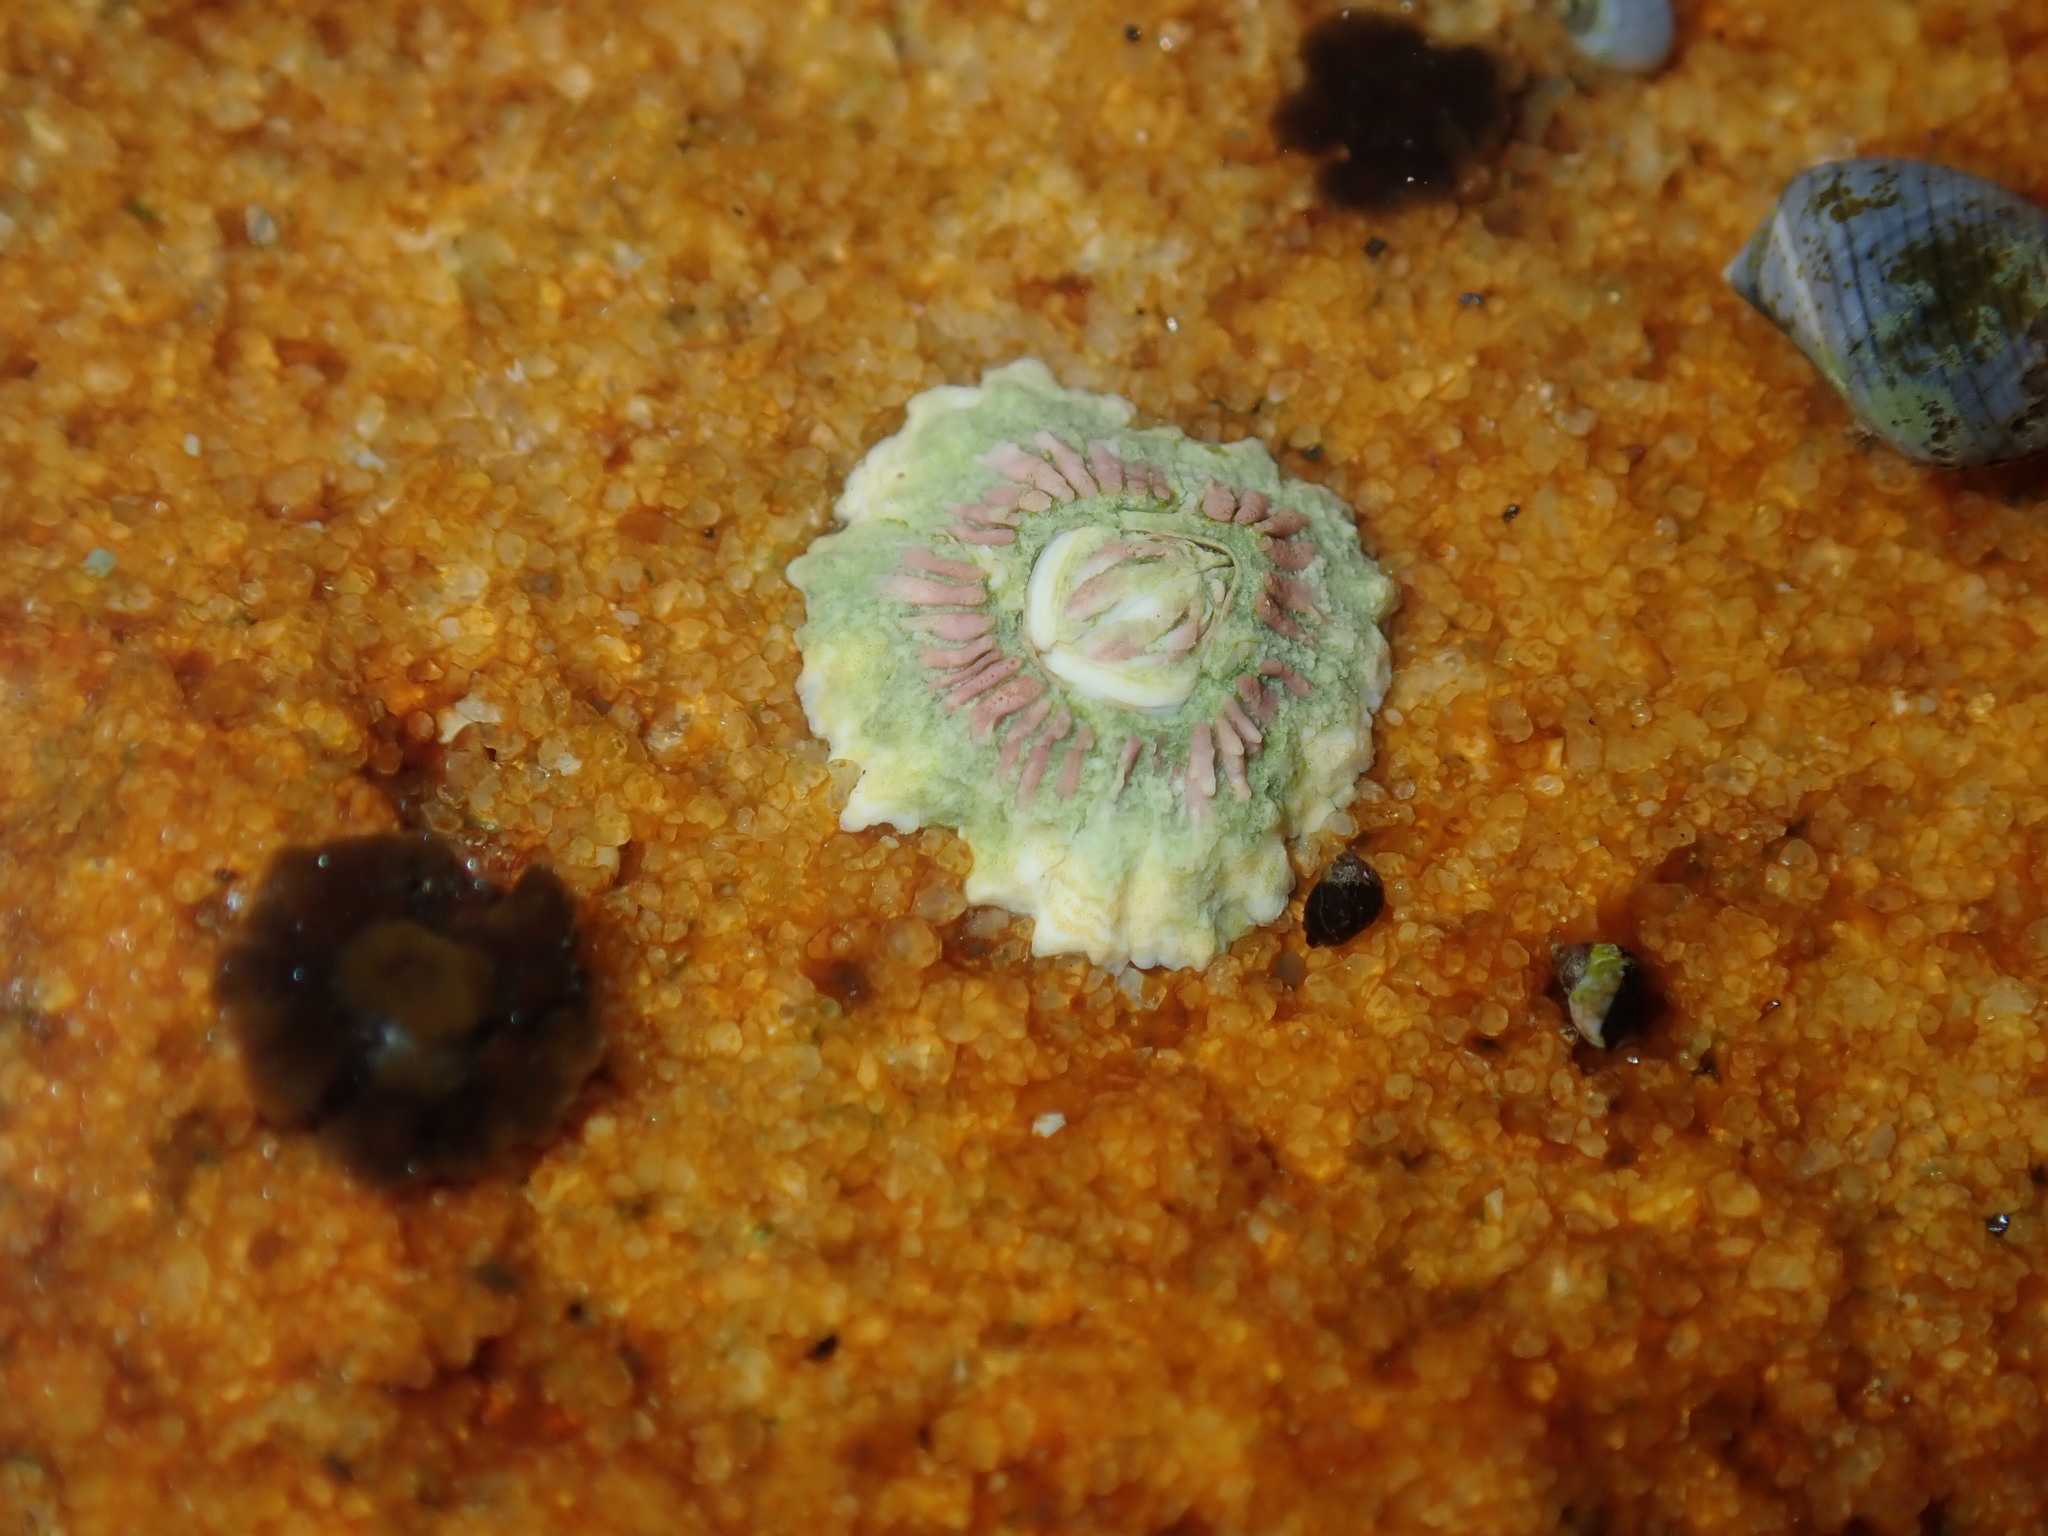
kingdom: Animalia
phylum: Arthropoda
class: Maxillopoda
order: Sessilia
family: Tetraclitidae
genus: Tesseropora
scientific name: Tesseropora rosea
